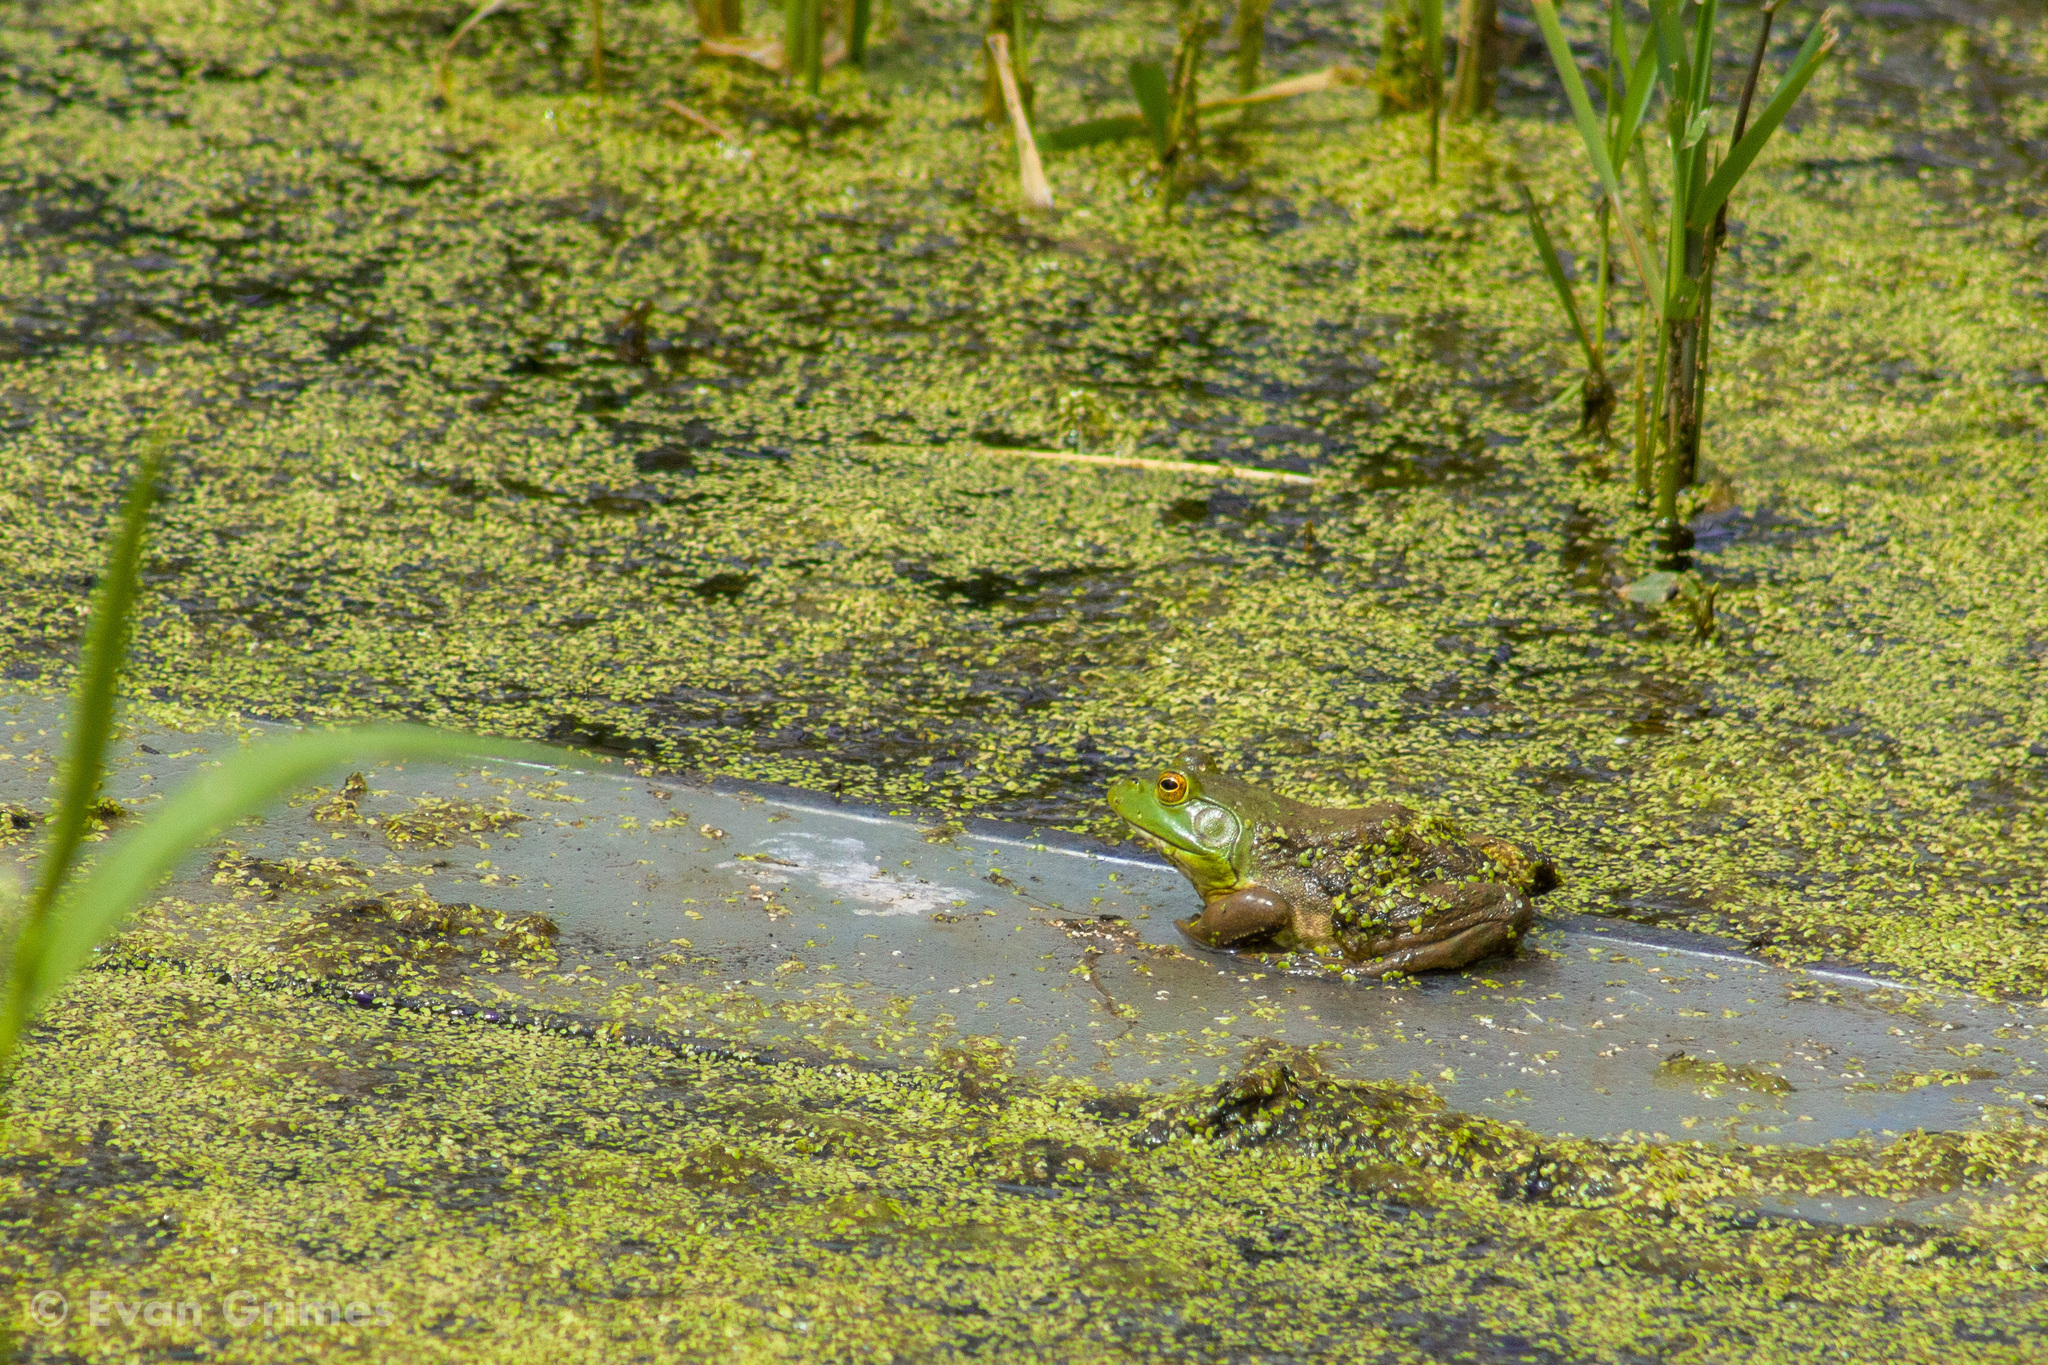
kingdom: Animalia
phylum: Chordata
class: Amphibia
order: Anura
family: Ranidae
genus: Lithobates
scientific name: Lithobates catesbeianus
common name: American bullfrog
